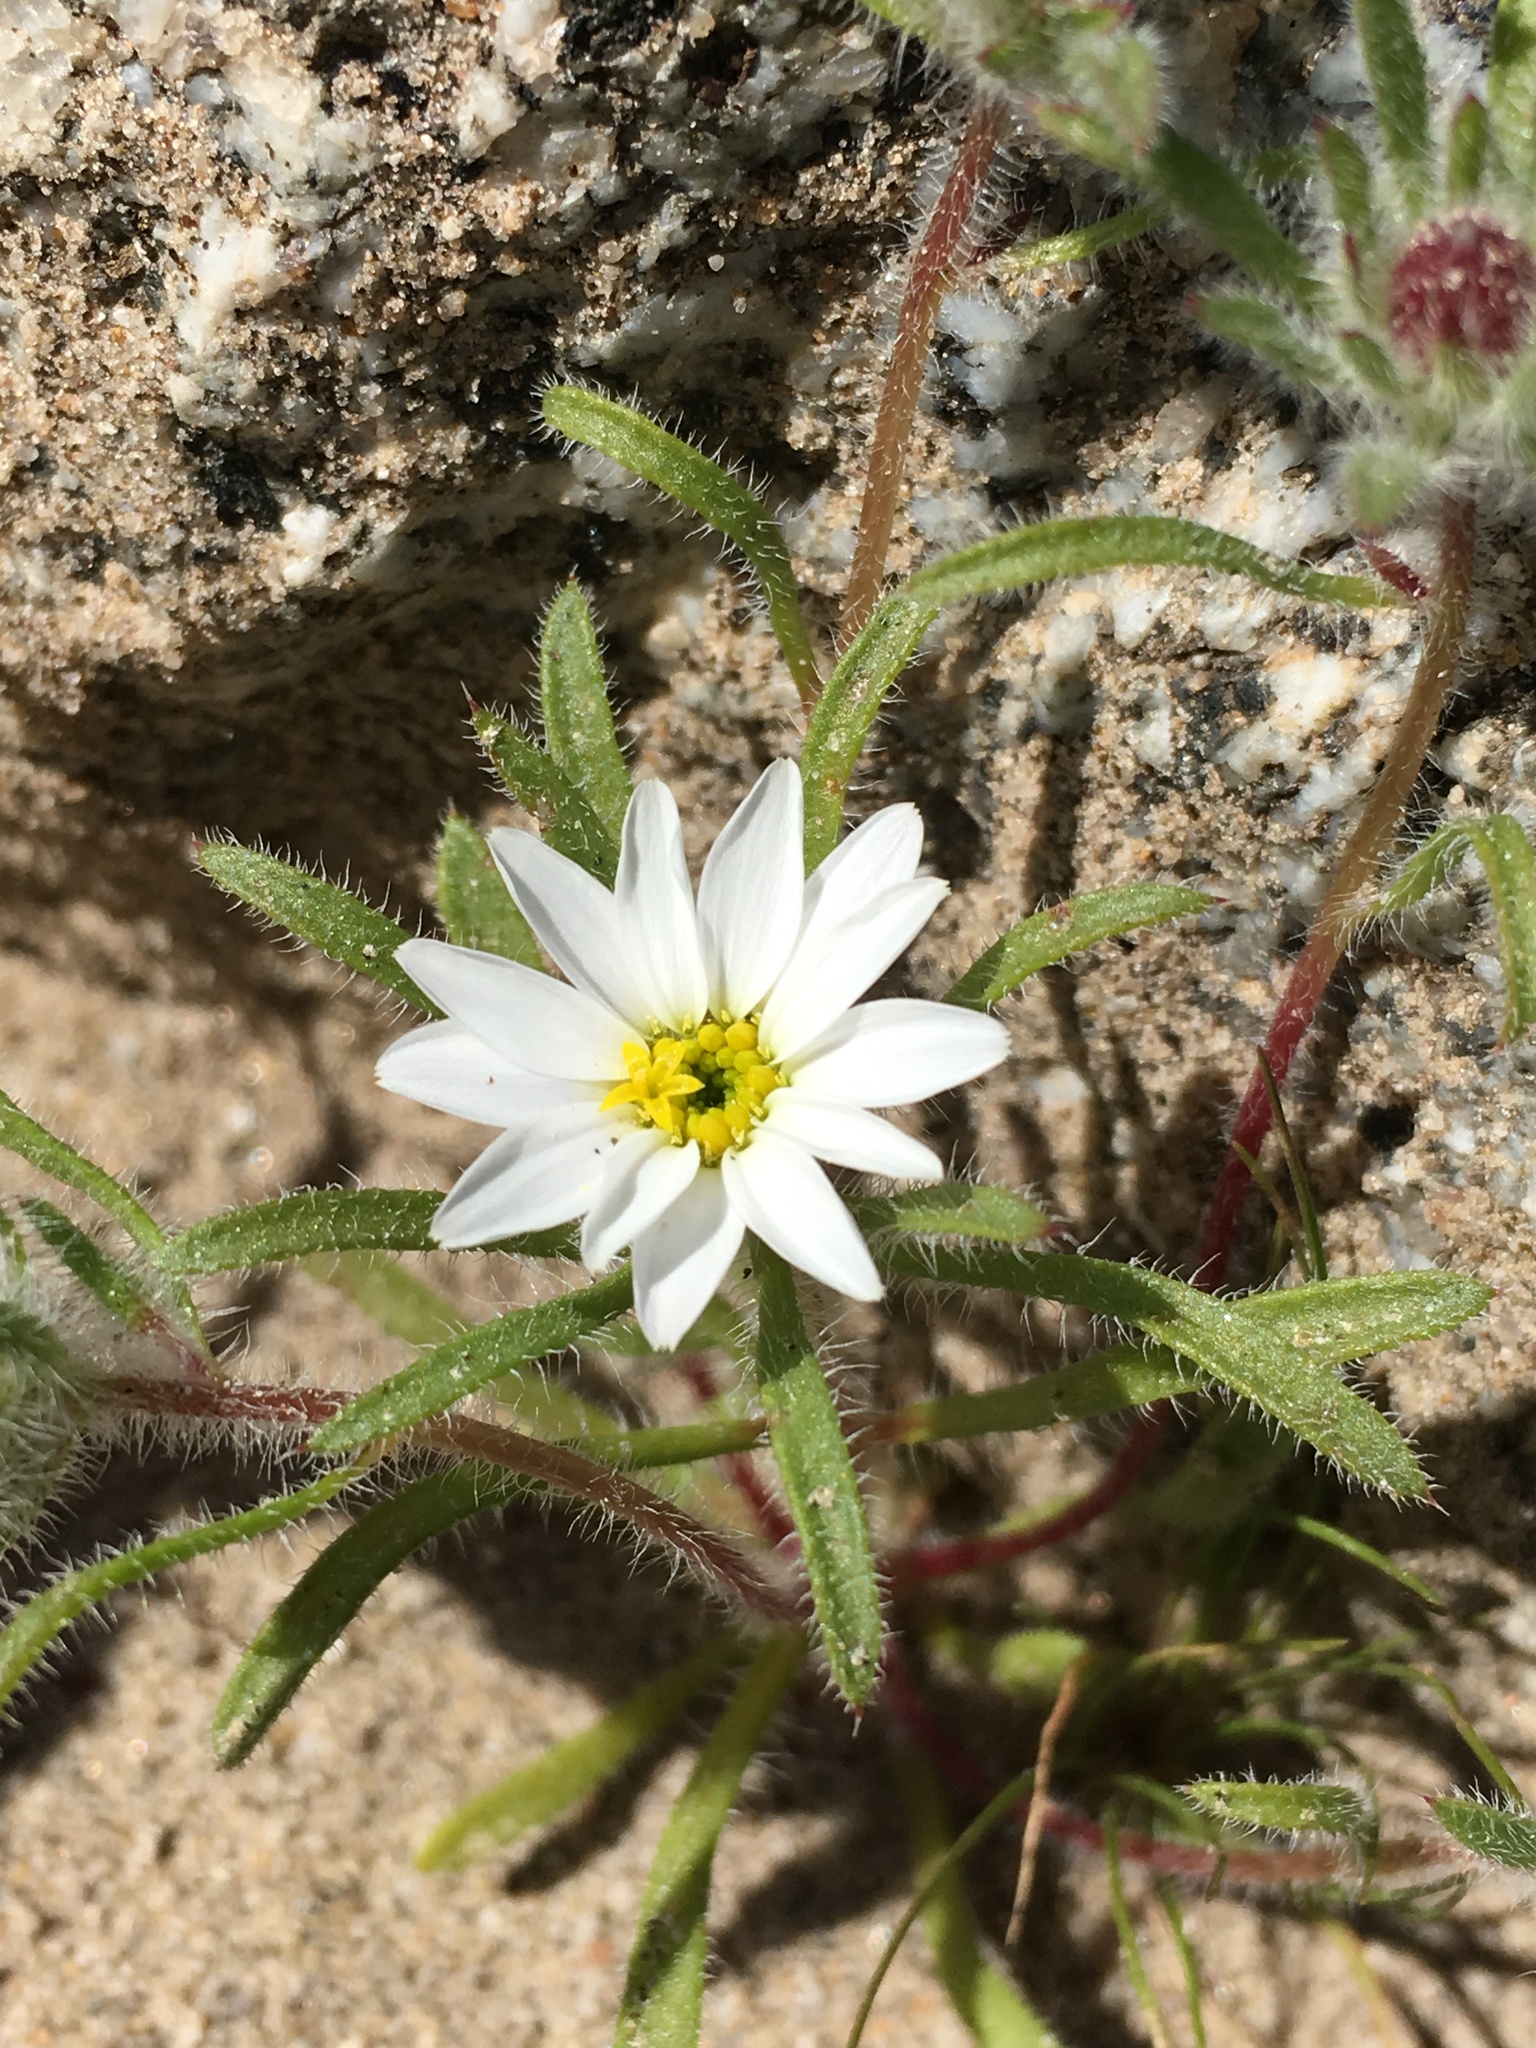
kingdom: Plantae
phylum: Tracheophyta
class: Magnoliopsida
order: Asterales
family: Asteraceae
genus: Monoptilon
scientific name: Monoptilon bellioides
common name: Bristly desertstar
